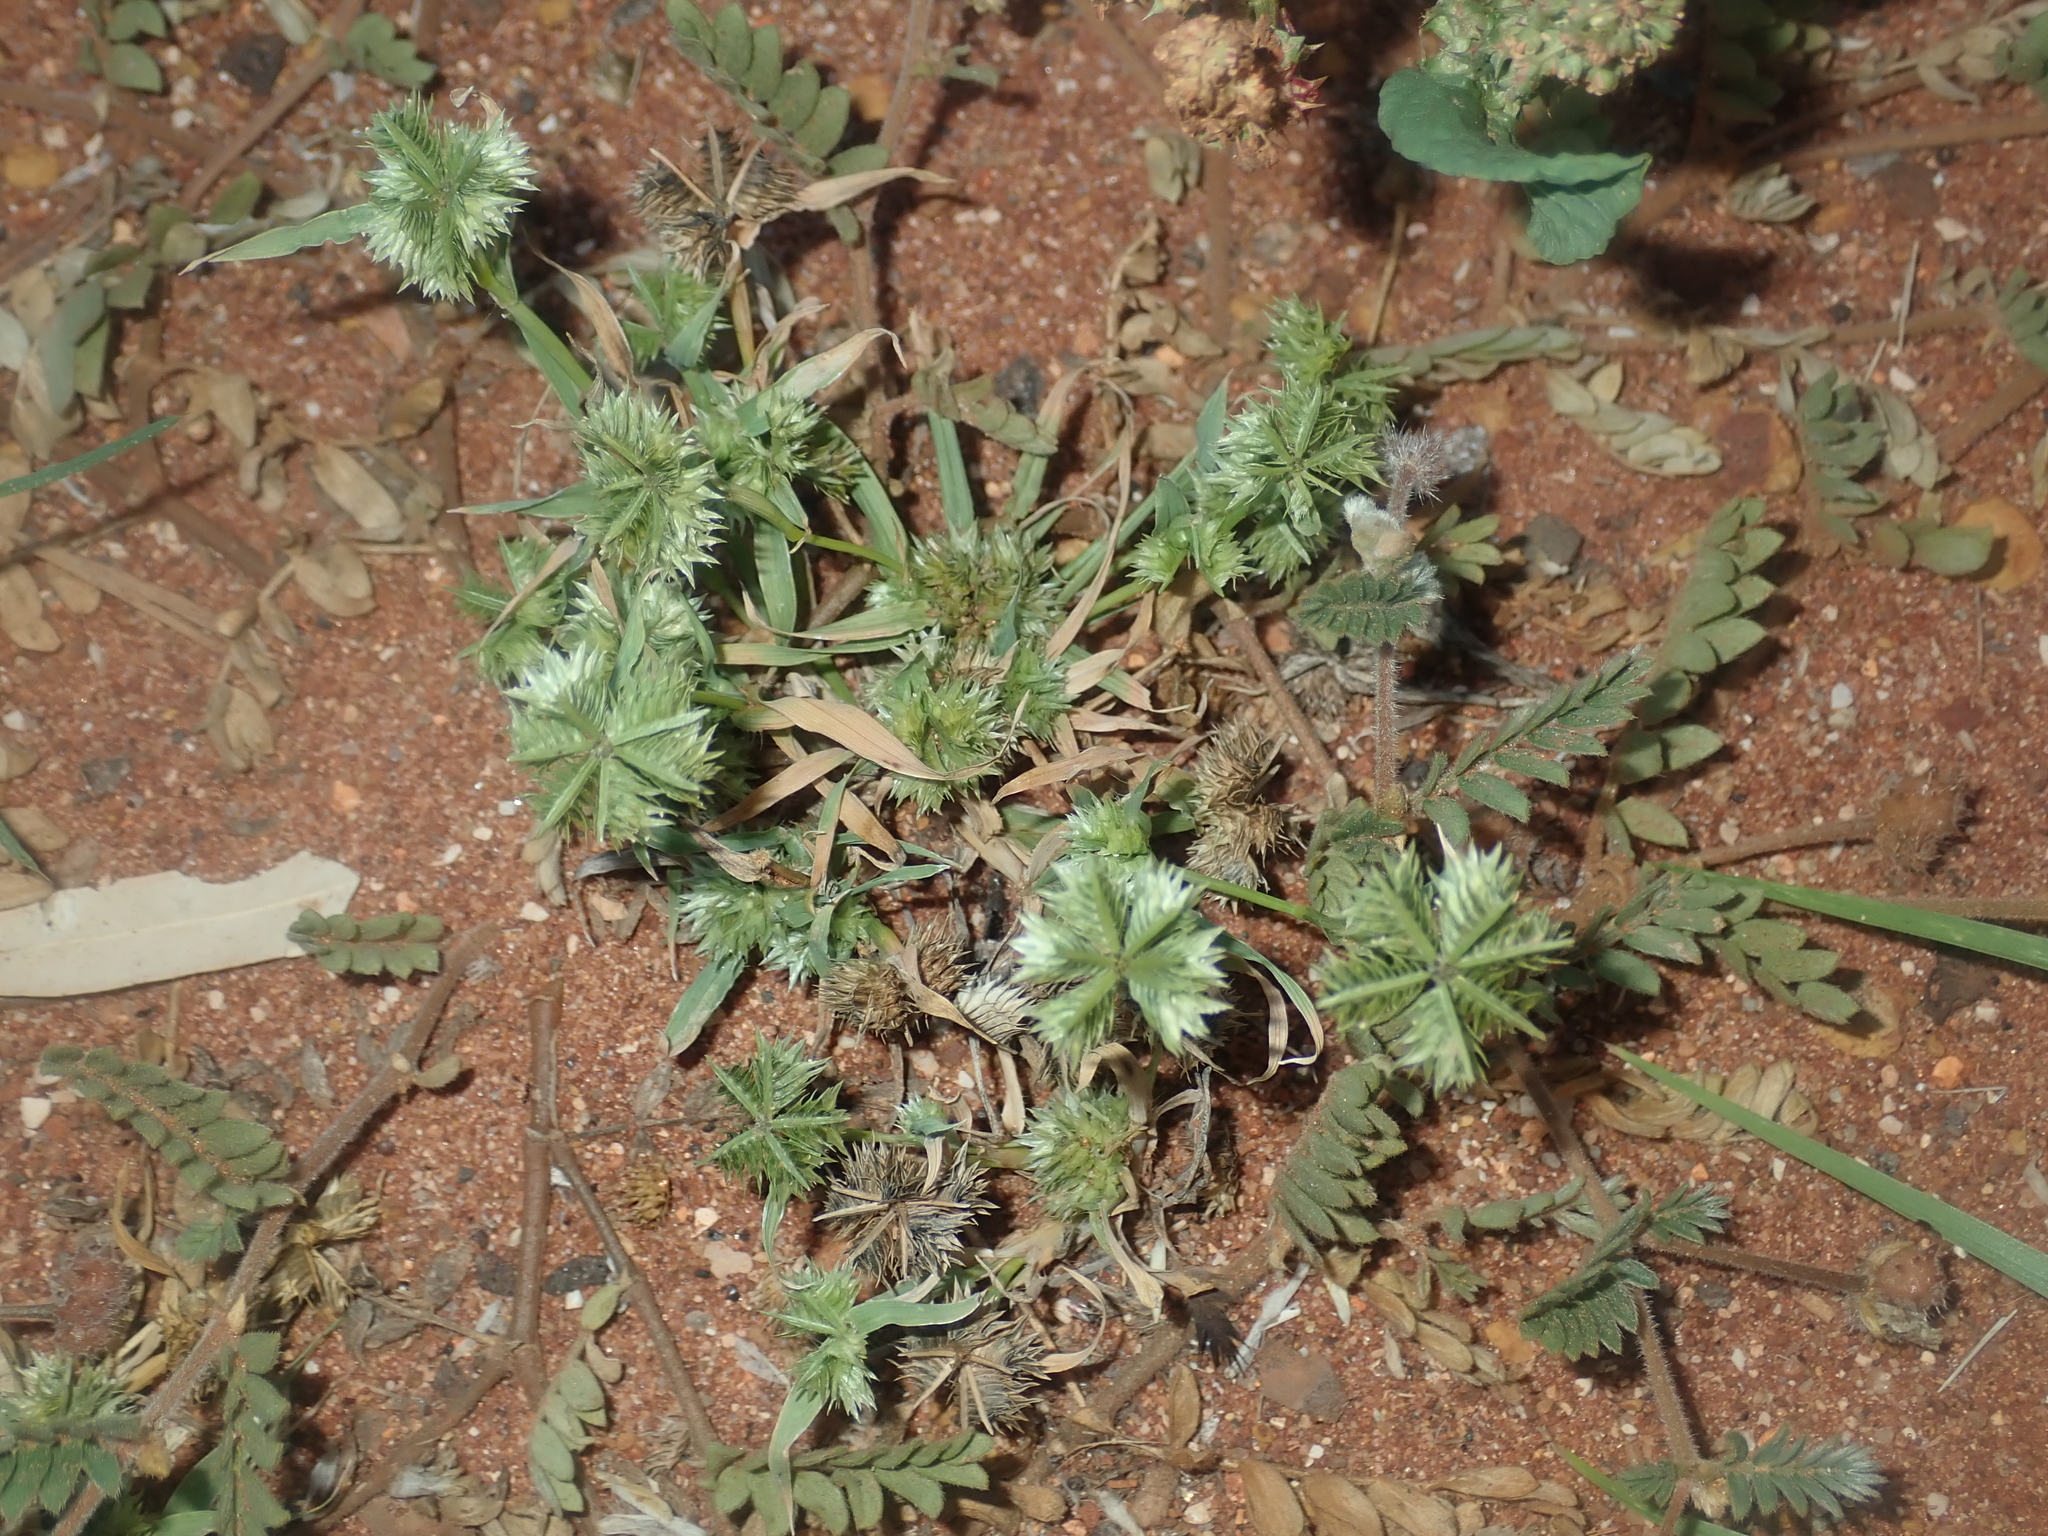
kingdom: Plantae
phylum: Tracheophyta
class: Liliopsida
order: Poales
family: Poaceae
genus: Dactyloctenium
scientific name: Dactyloctenium radulans
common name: Button-grass
